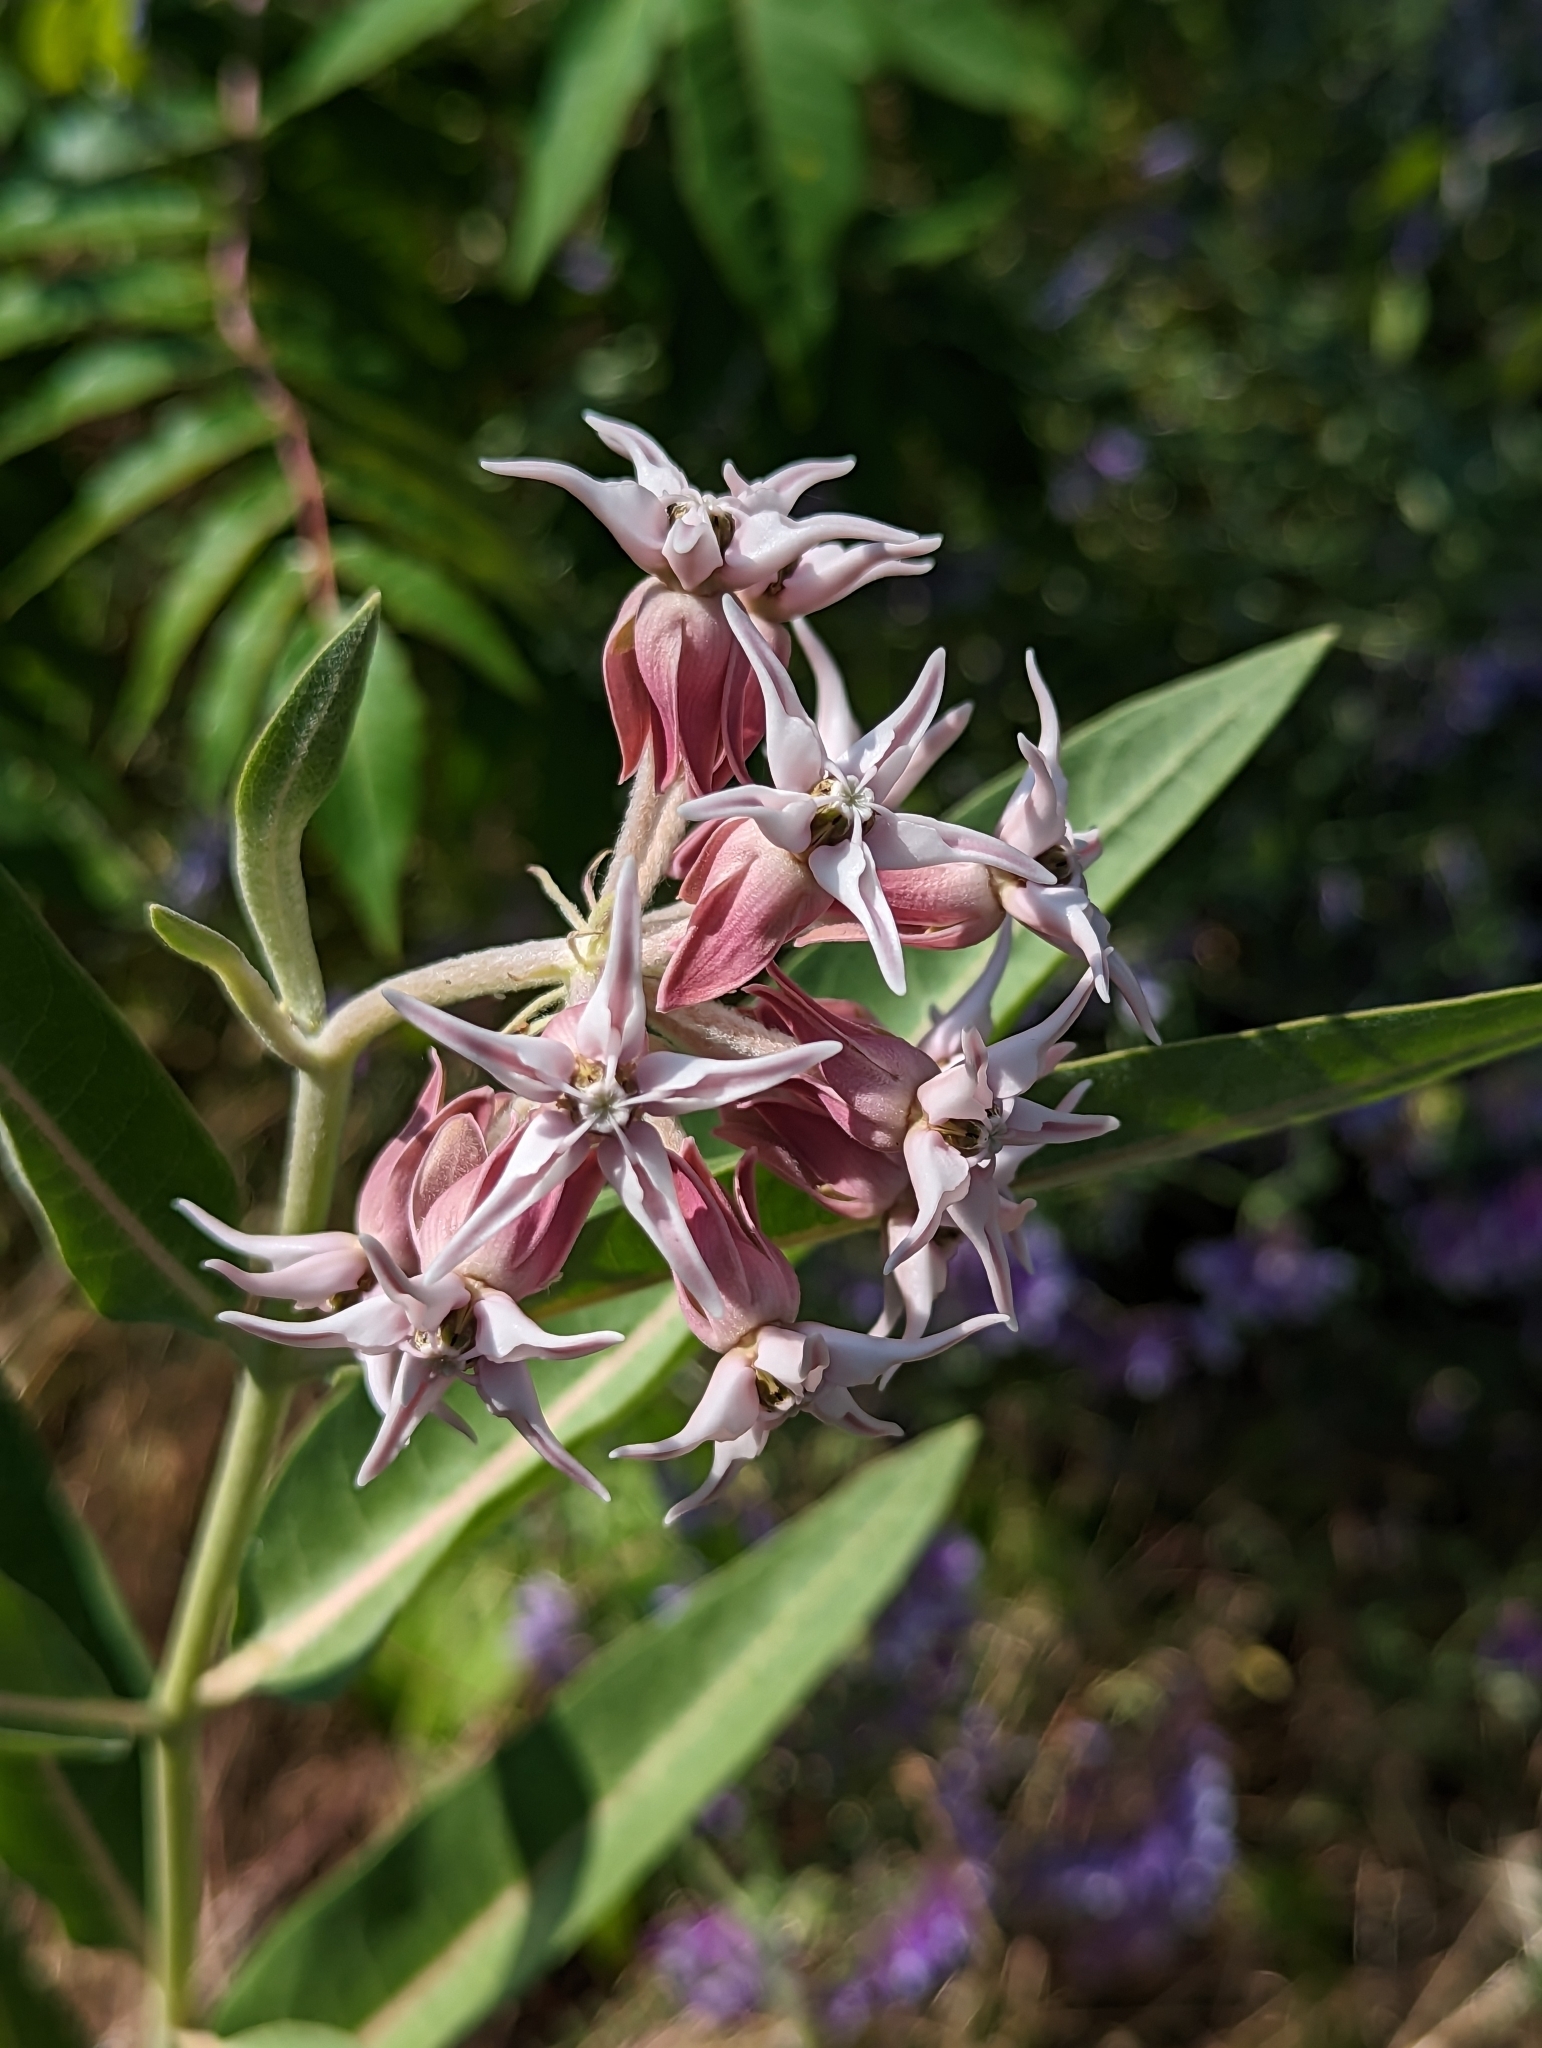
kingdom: Plantae
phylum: Tracheophyta
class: Magnoliopsida
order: Gentianales
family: Apocynaceae
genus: Asclepias
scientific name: Asclepias speciosa
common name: Showy milkweed
